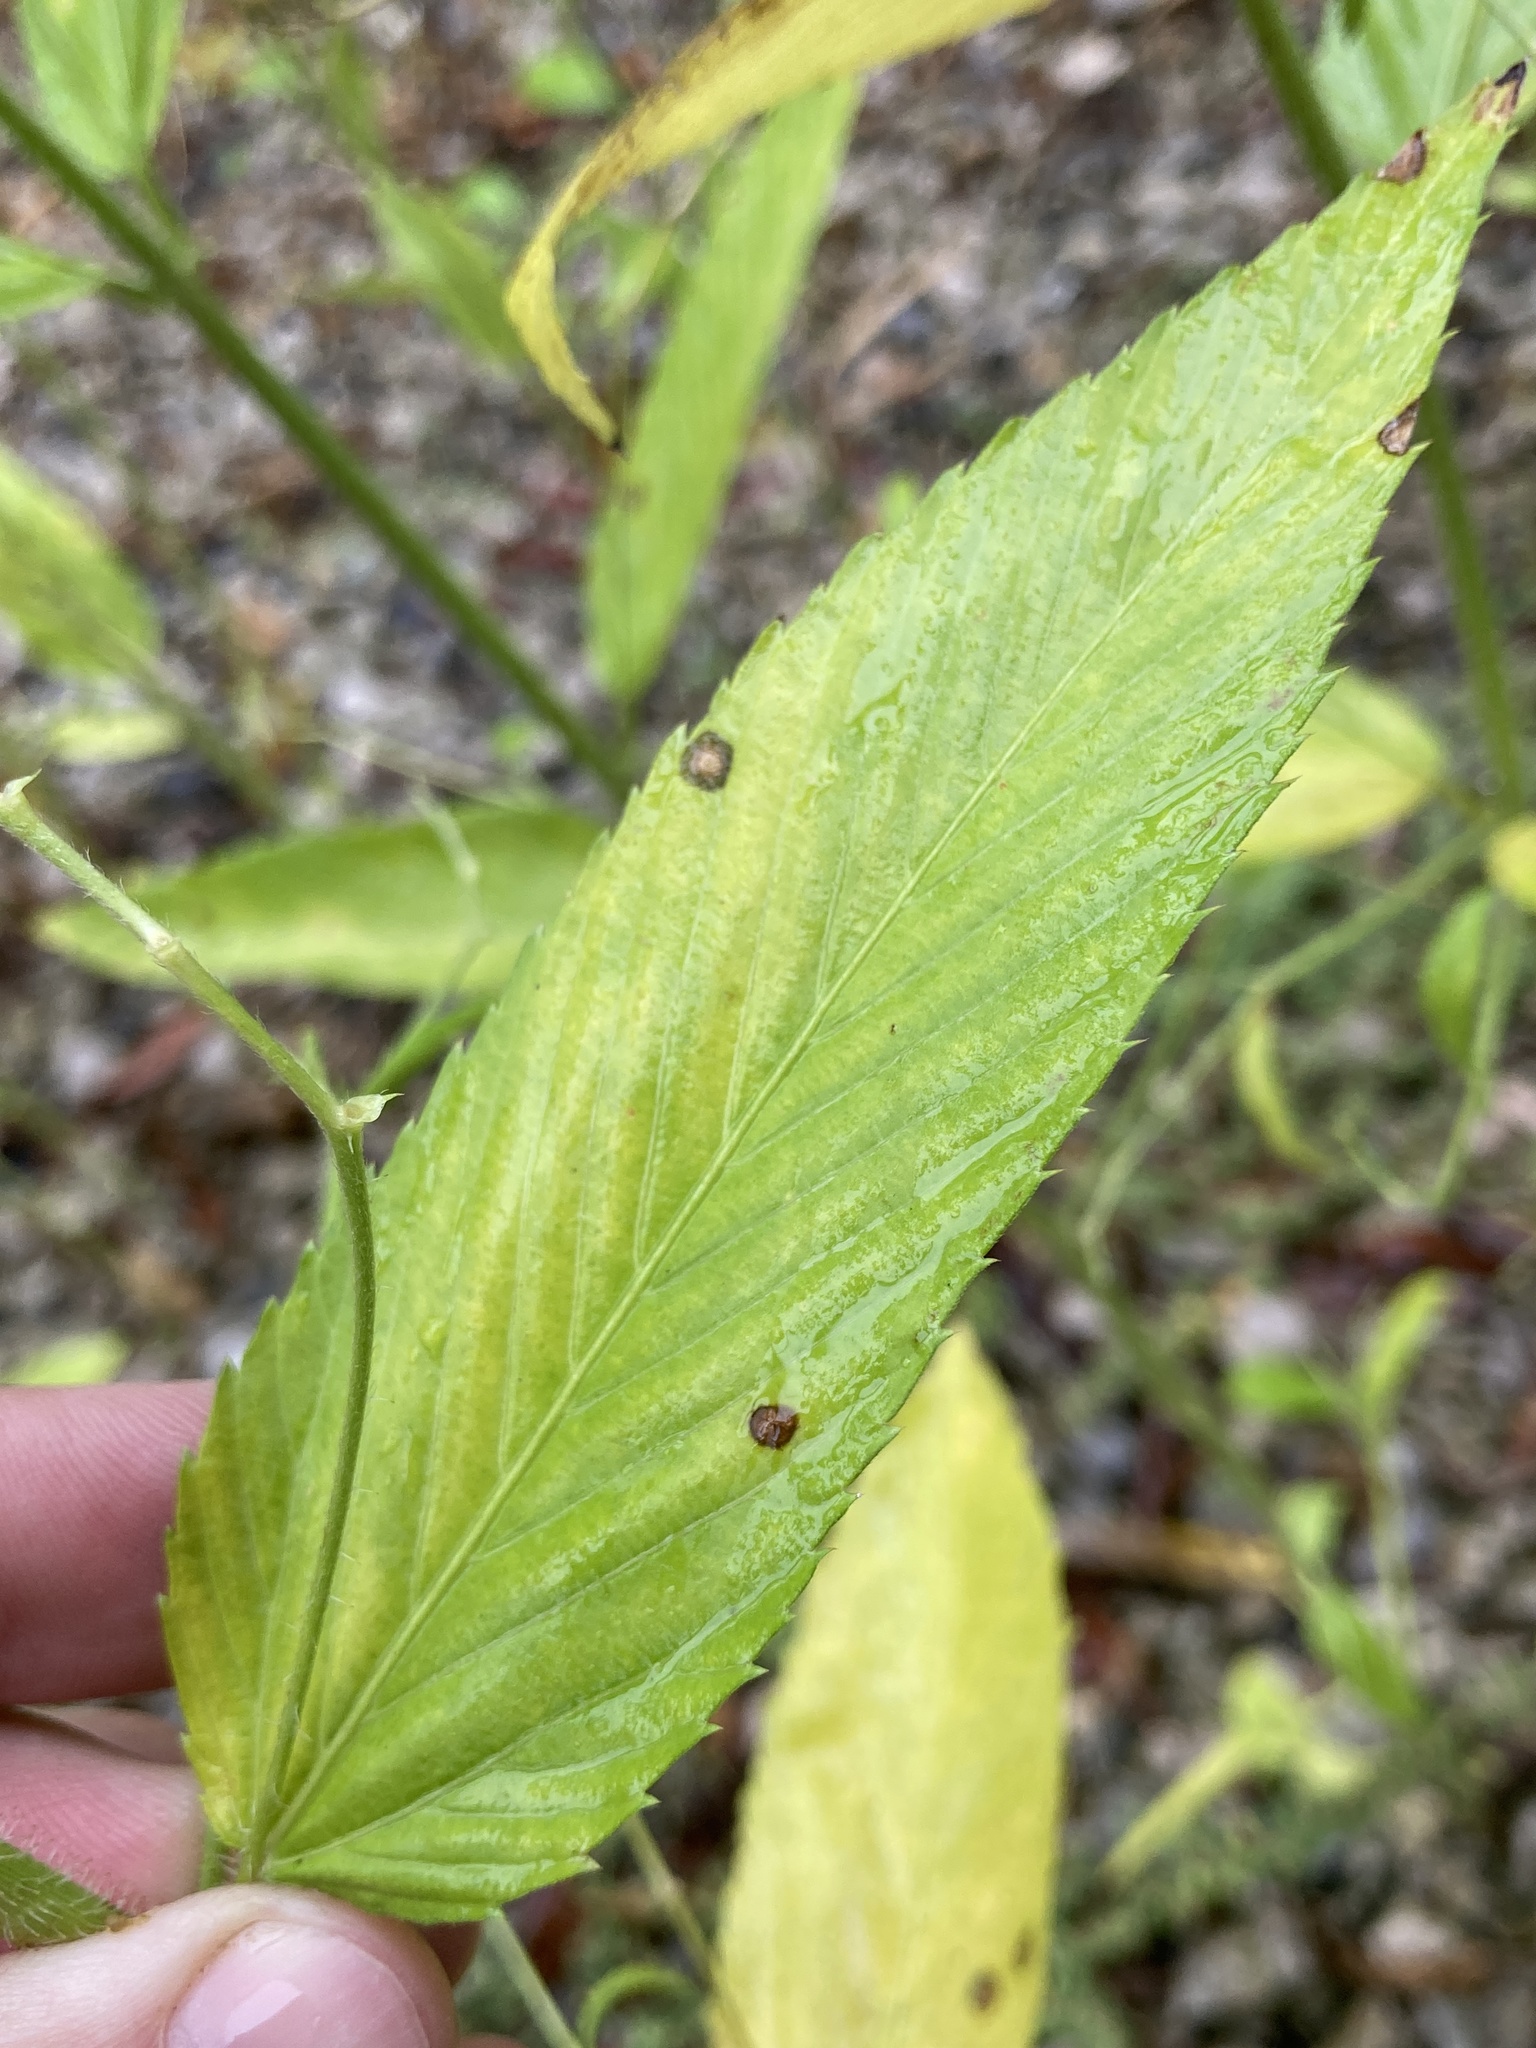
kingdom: Plantae
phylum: Tracheophyta
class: Magnoliopsida
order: Malpighiales
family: Euphorbiaceae
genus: Caperonia
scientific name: Caperonia palustris
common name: Sacatrapo
